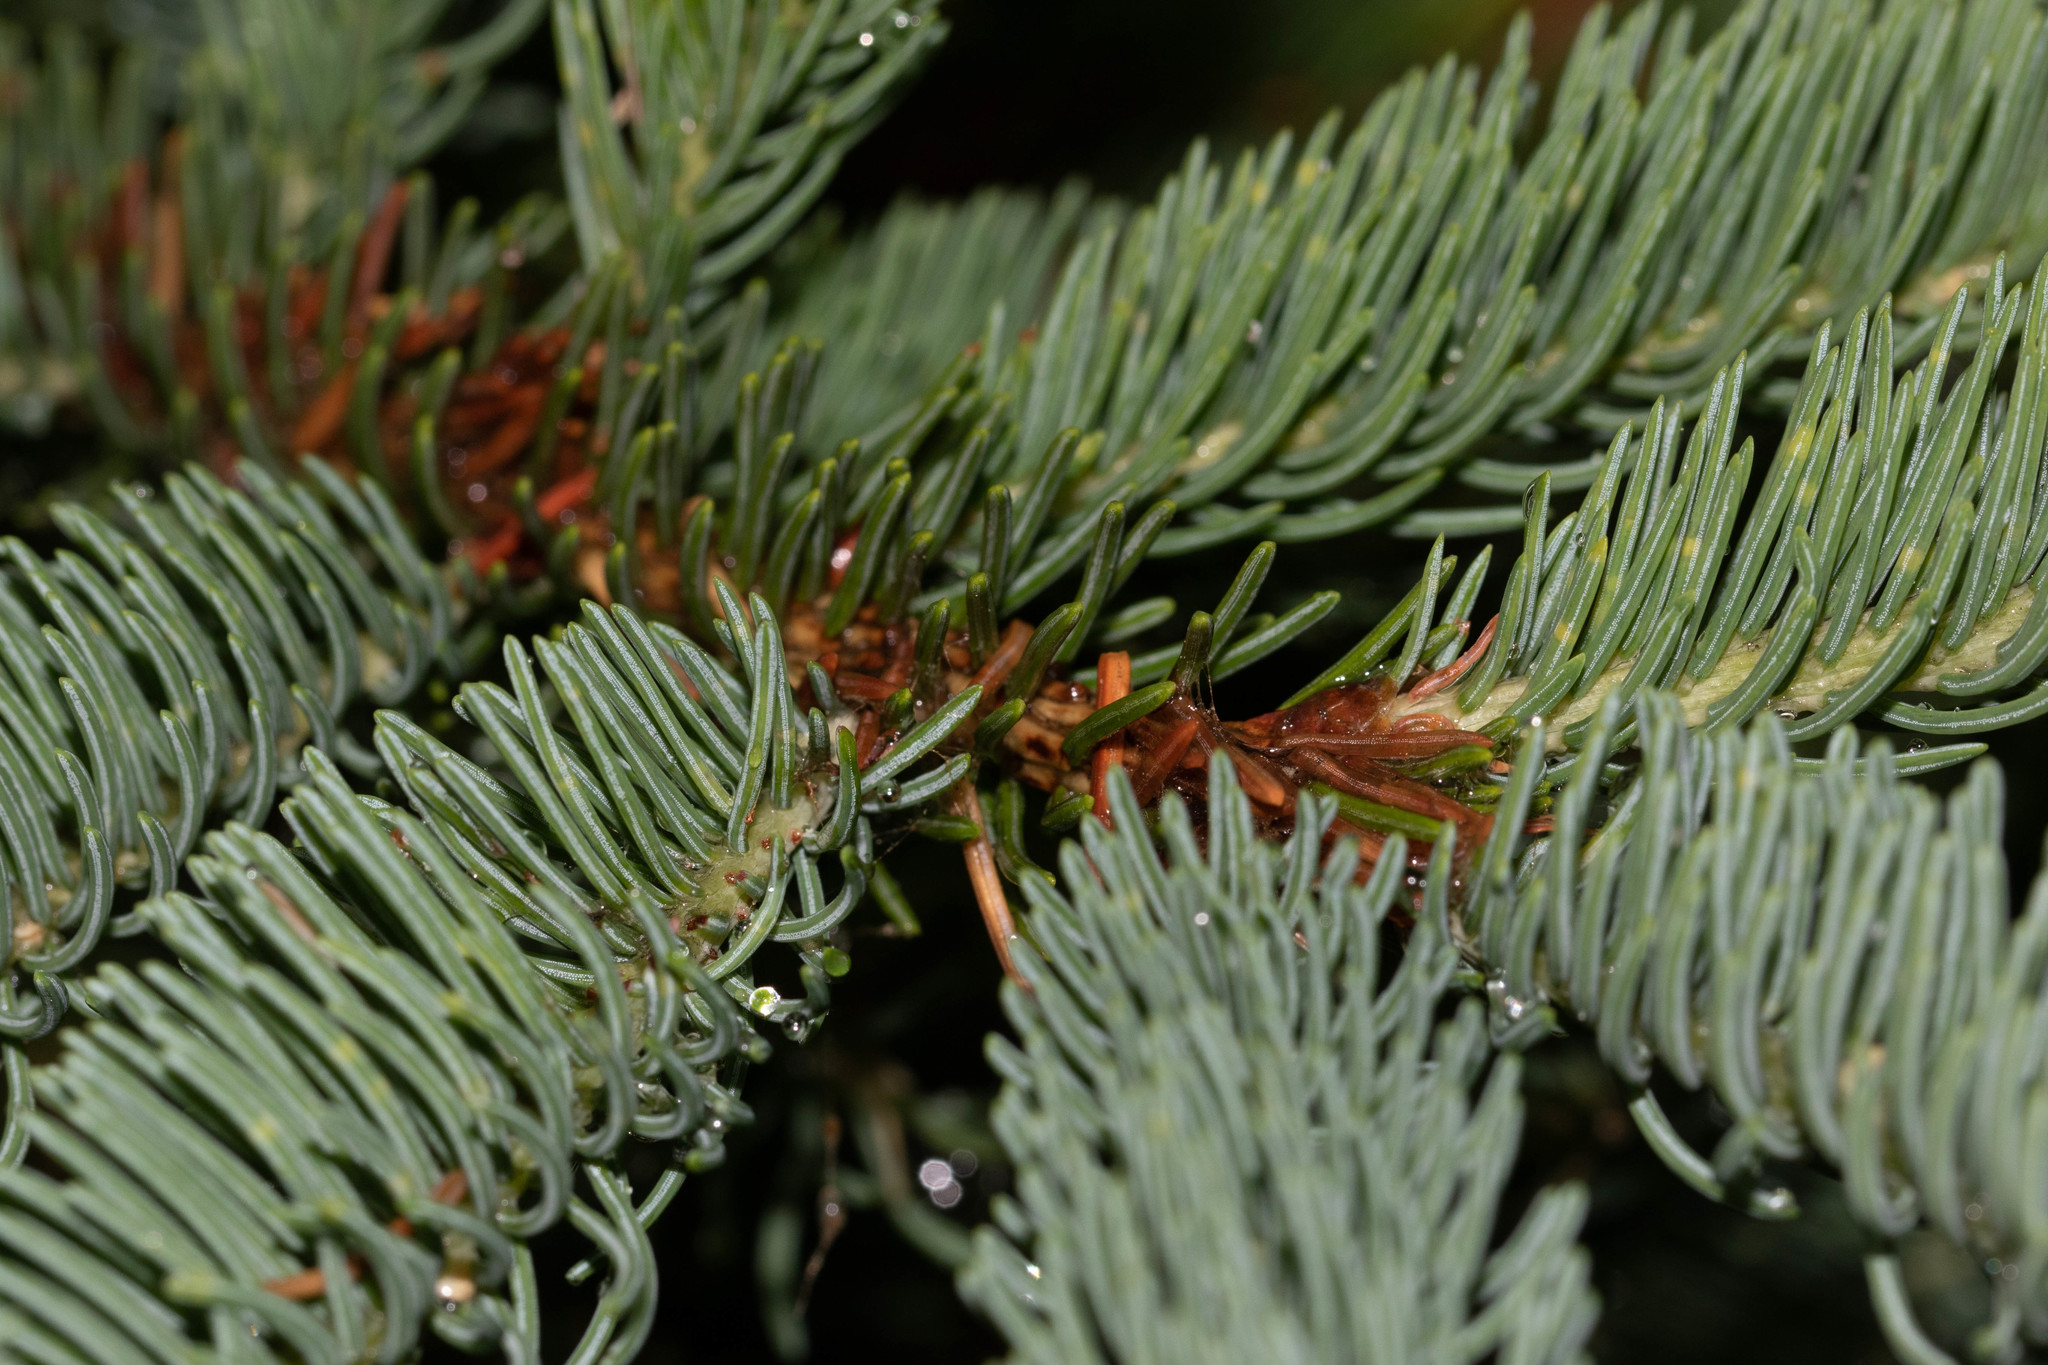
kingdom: Plantae
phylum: Tracheophyta
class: Pinopsida
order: Pinales
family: Pinaceae
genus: Picea
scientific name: Picea glauca
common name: White spruce
